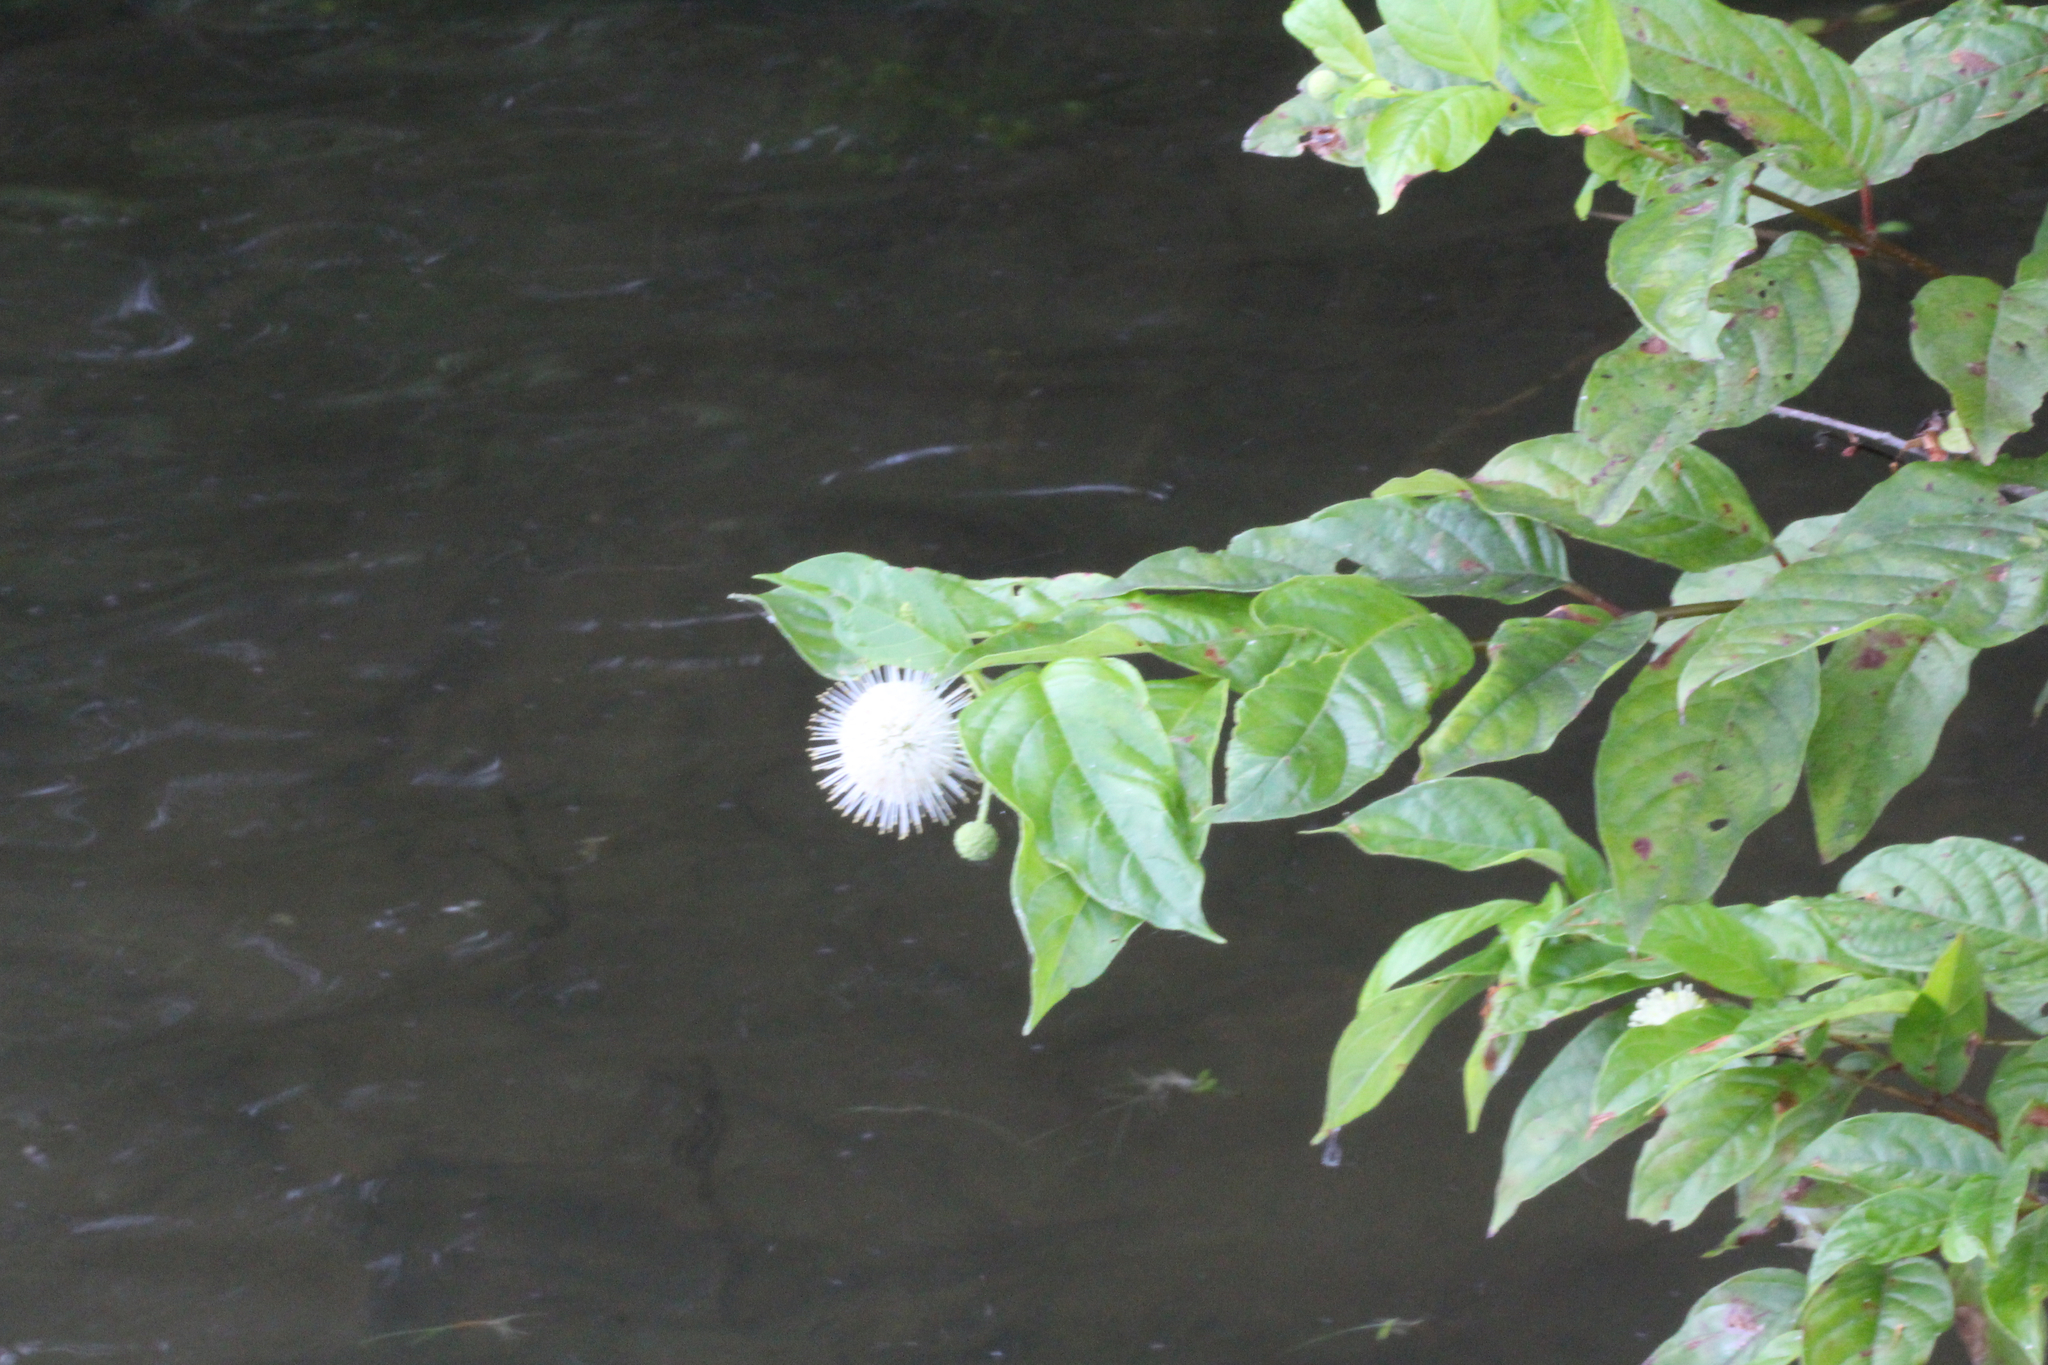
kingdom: Plantae
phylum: Tracheophyta
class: Magnoliopsida
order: Gentianales
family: Rubiaceae
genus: Cephalanthus
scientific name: Cephalanthus occidentalis
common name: Button-willow
